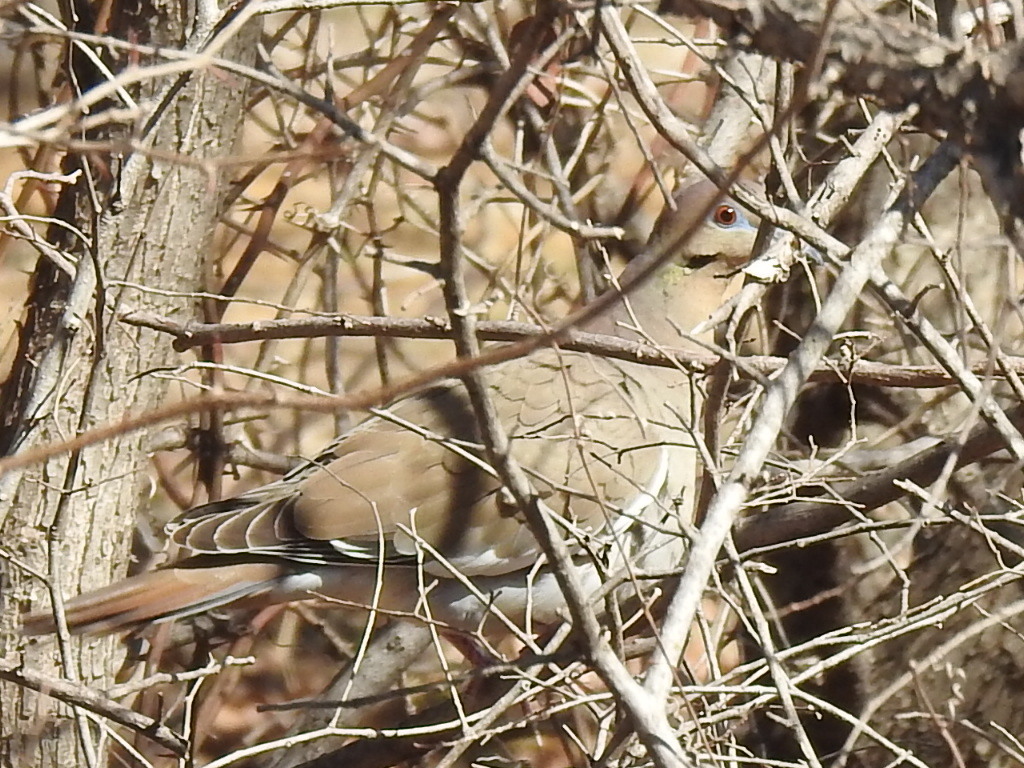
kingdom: Animalia
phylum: Chordata
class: Aves
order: Columbiformes
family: Columbidae
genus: Zenaida
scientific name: Zenaida asiatica
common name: White-winged dove
